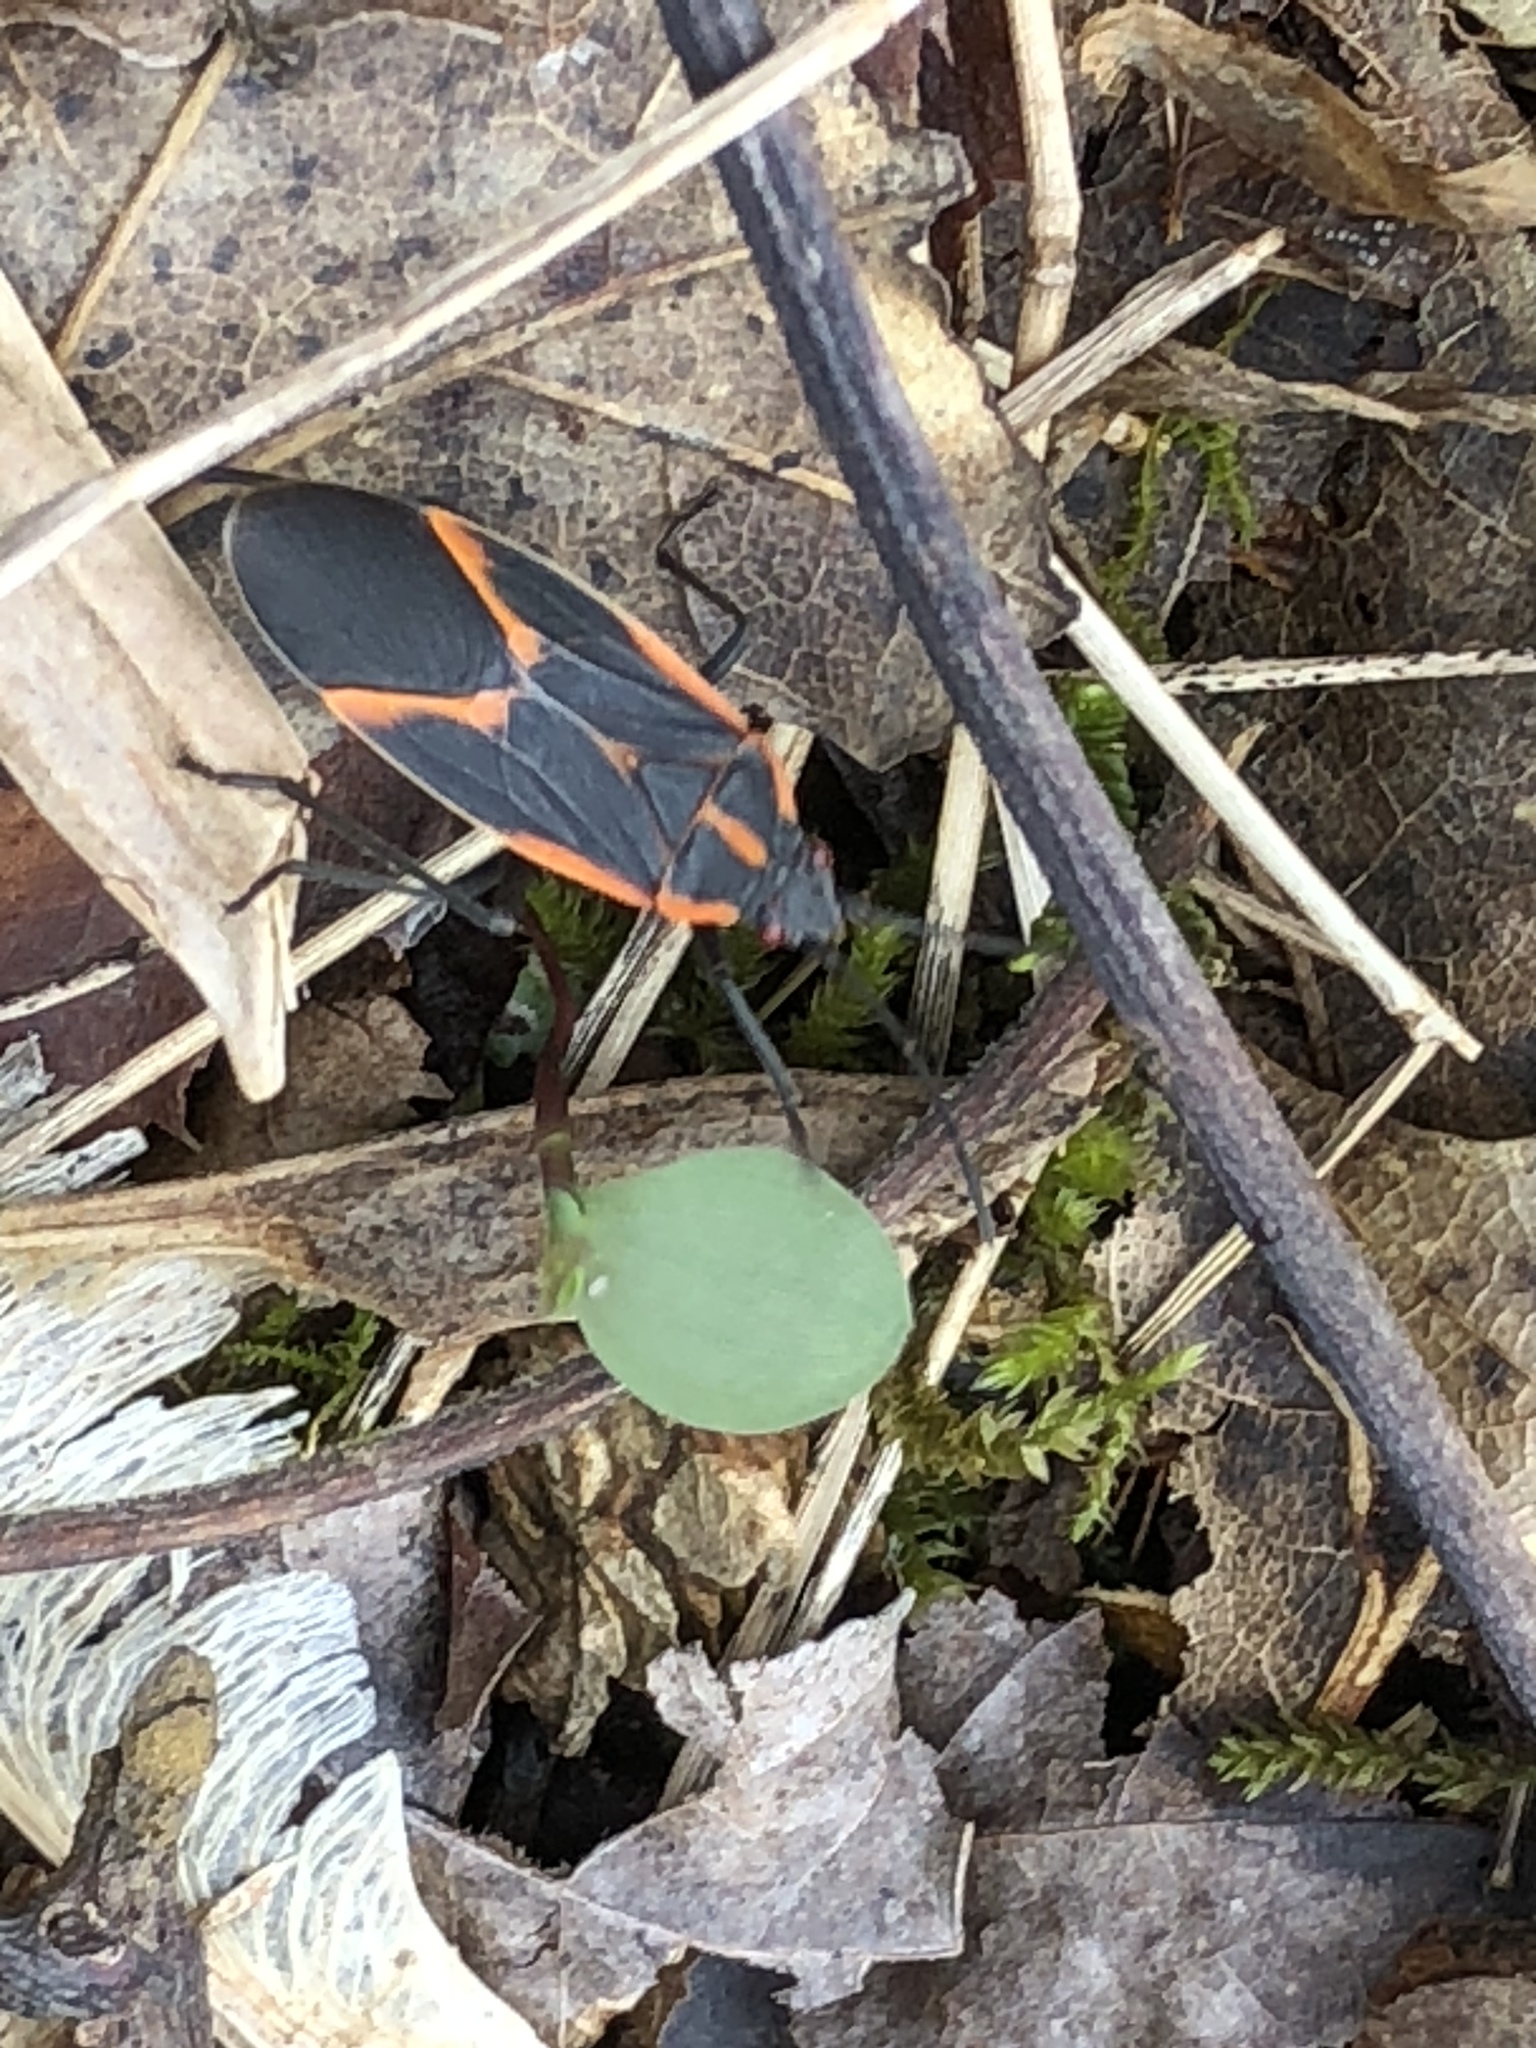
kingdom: Animalia
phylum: Arthropoda
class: Insecta
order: Hemiptera
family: Rhopalidae
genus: Boisea
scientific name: Boisea trivittata
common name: Boxelder bug
